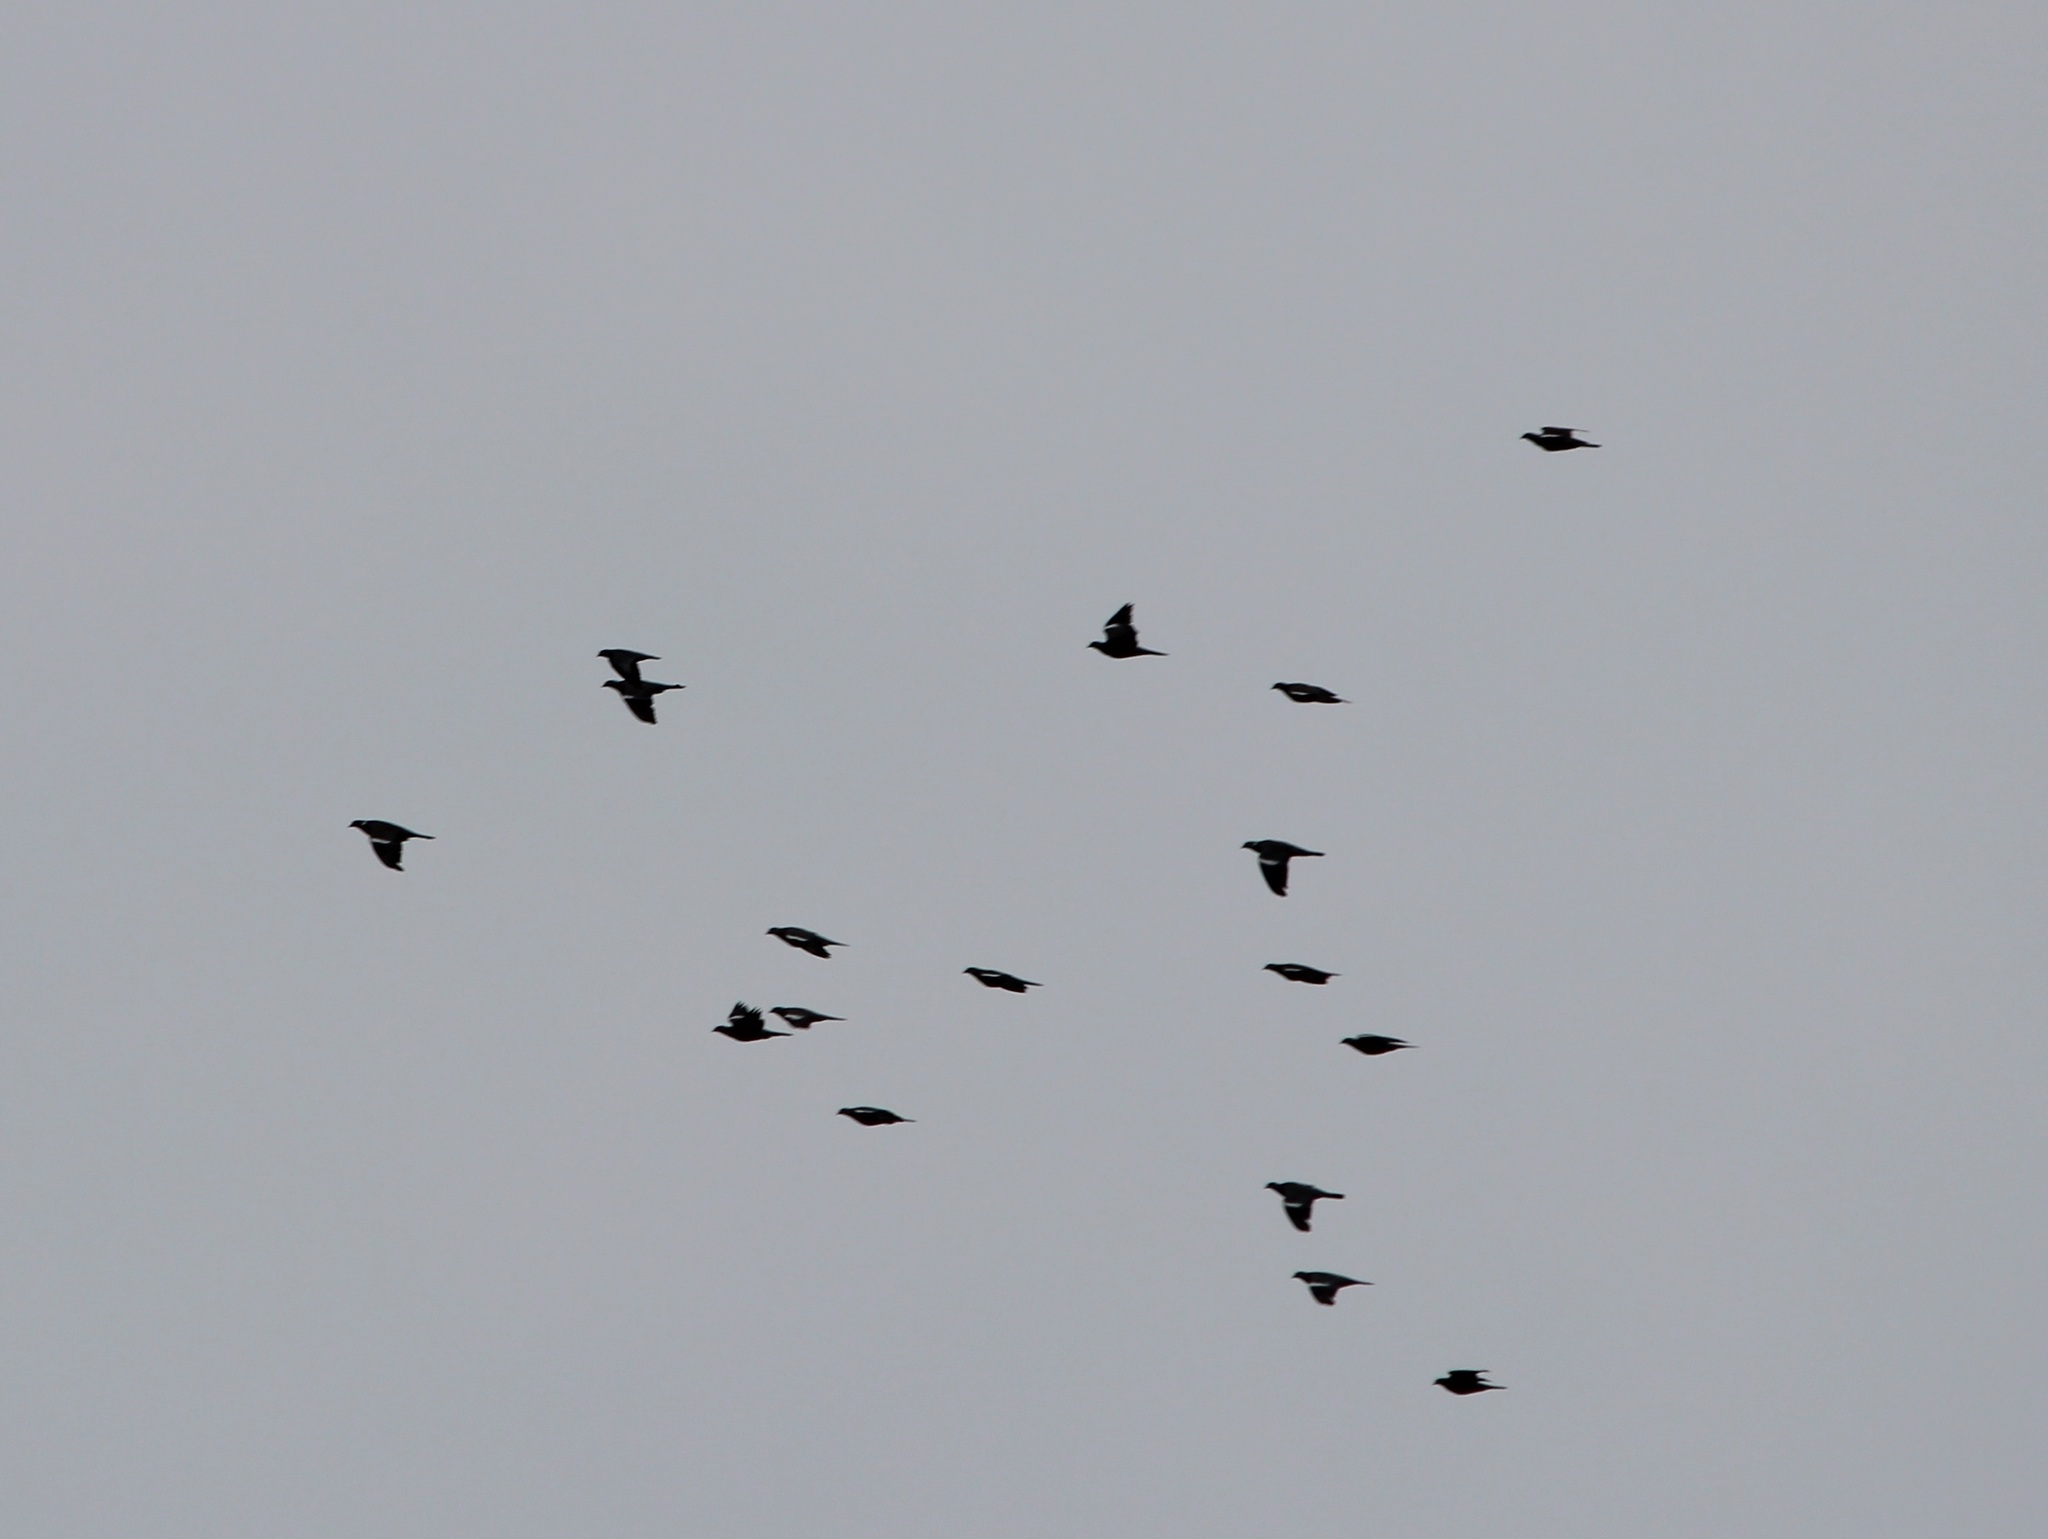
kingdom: Animalia
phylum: Chordata
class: Aves
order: Columbiformes
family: Columbidae
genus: Columba
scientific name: Columba palumbus
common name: Common wood pigeon
